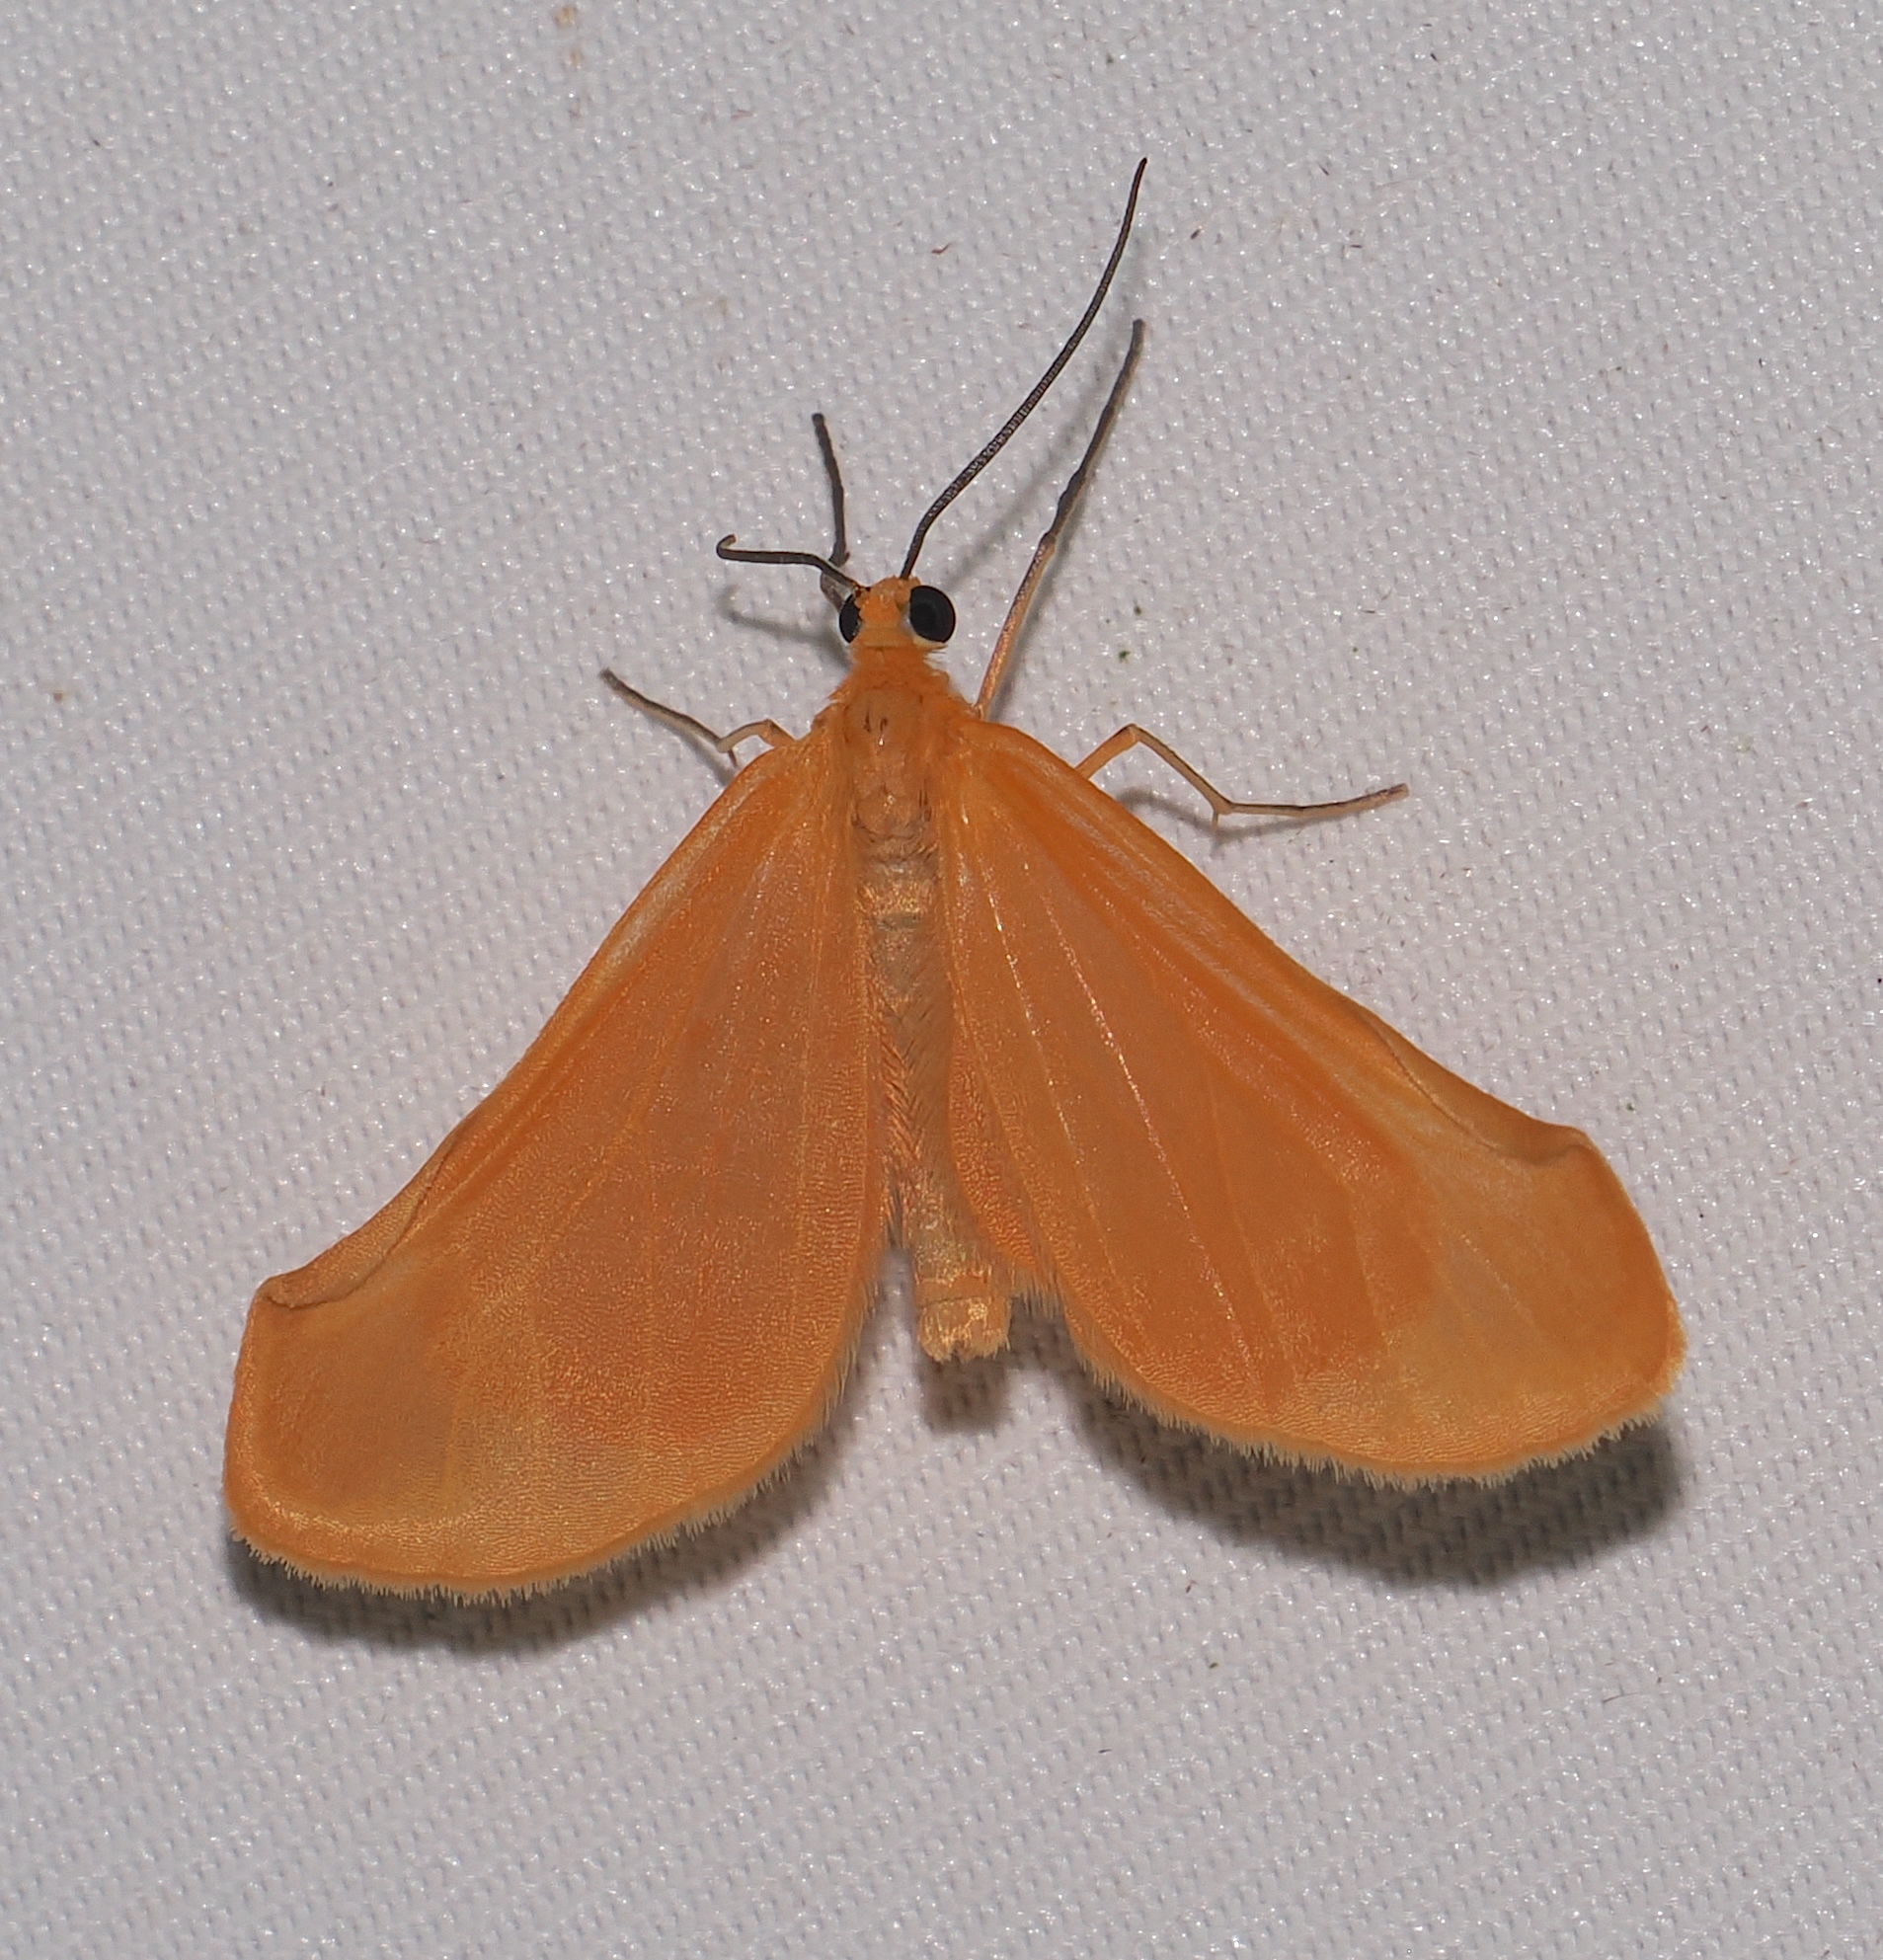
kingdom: Animalia
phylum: Arthropoda
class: Insecta
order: Lepidoptera
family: Geometridae
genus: Eubaphe
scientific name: Eubaphe lobula
